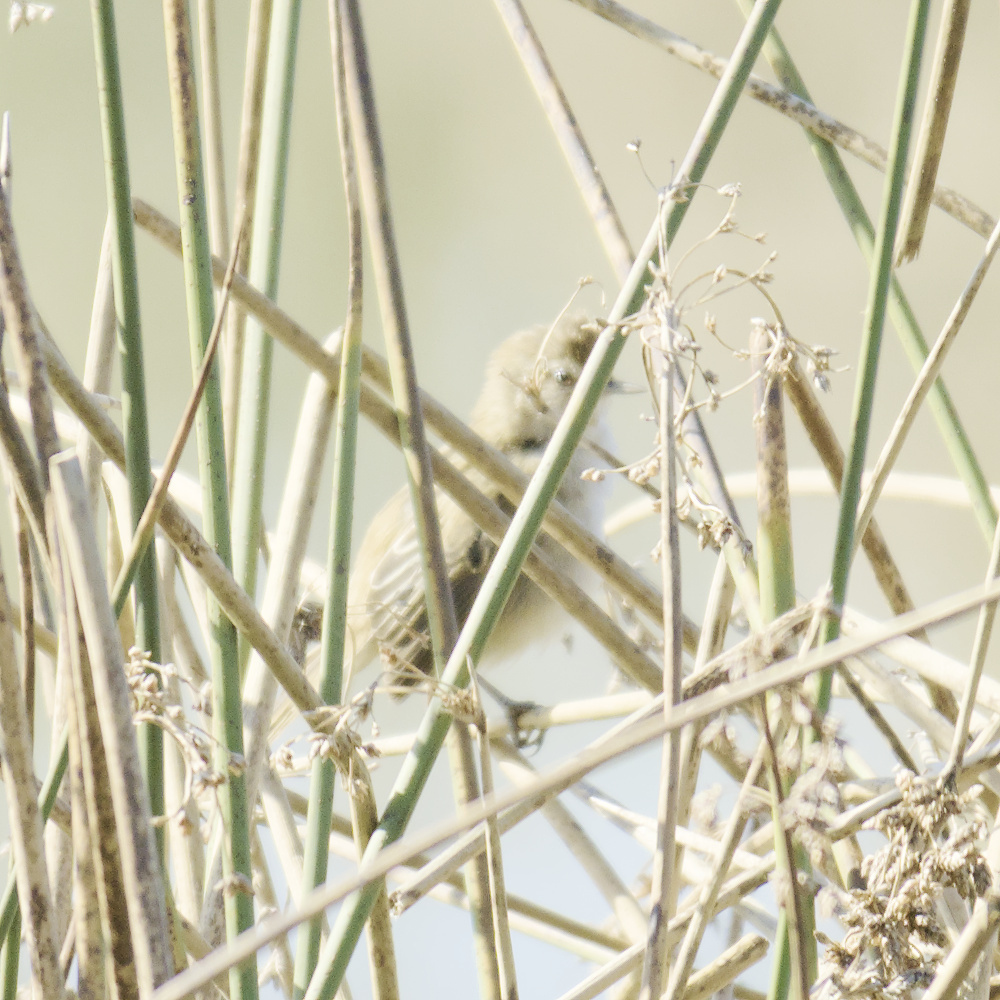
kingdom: Animalia
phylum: Chordata
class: Aves
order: Passeriformes
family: Locustellidae
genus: Megalurus
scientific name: Megalurus gramineus
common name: Little grassbird
